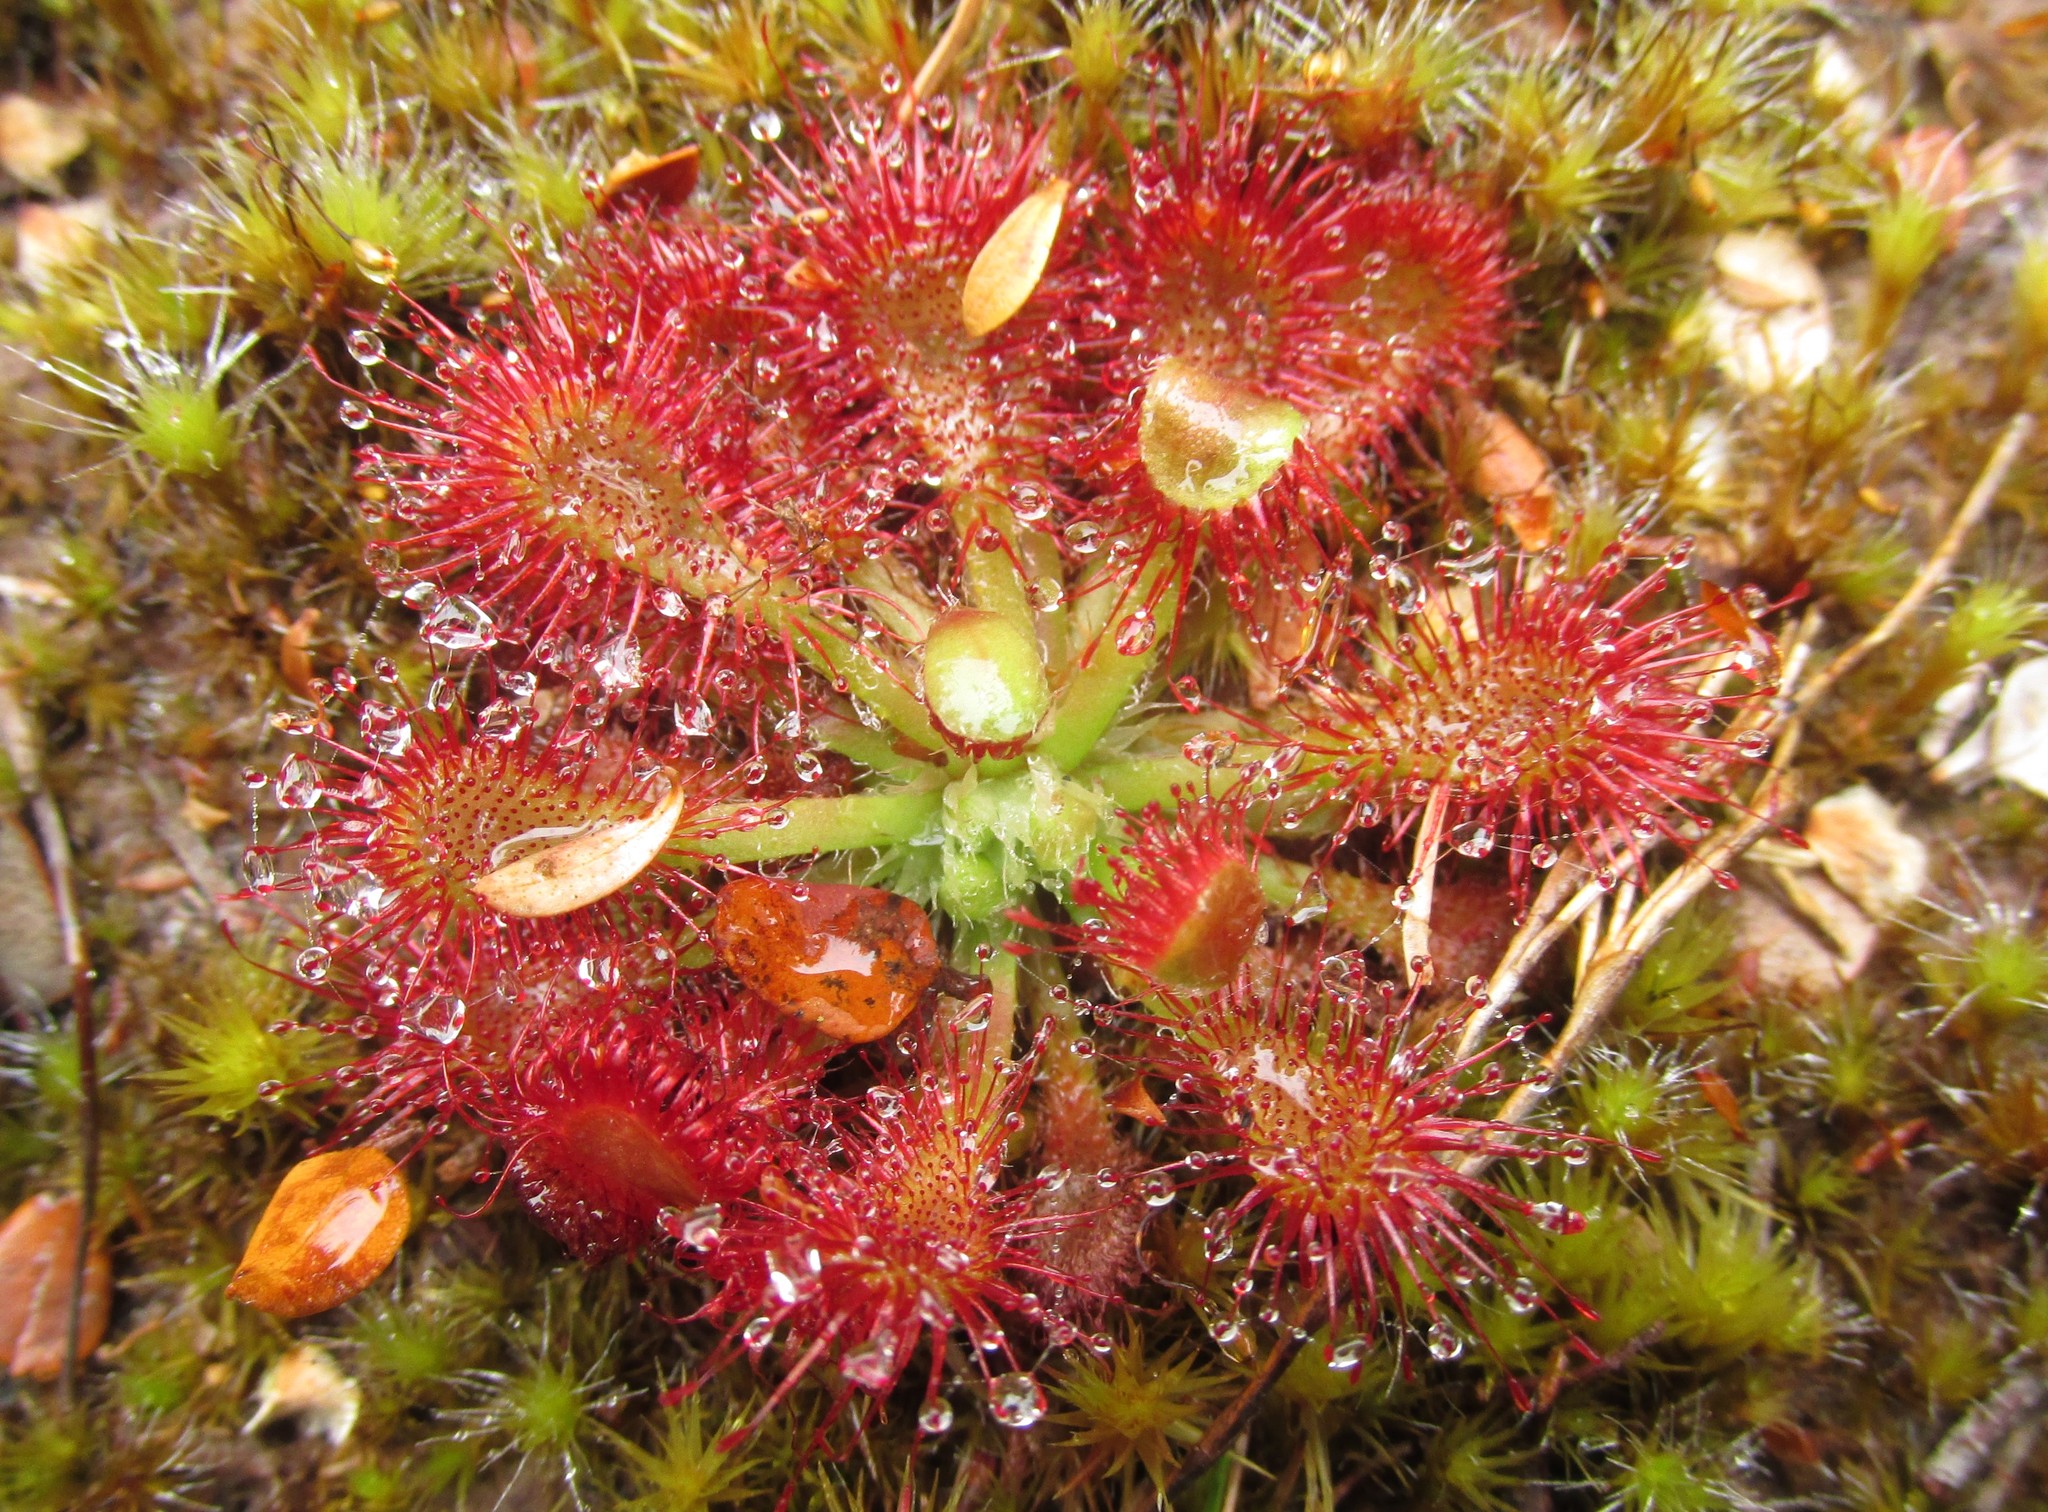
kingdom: Plantae
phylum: Tracheophyta
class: Magnoliopsida
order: Caryophyllales
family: Droseraceae
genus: Drosera
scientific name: Drosera spatulata
